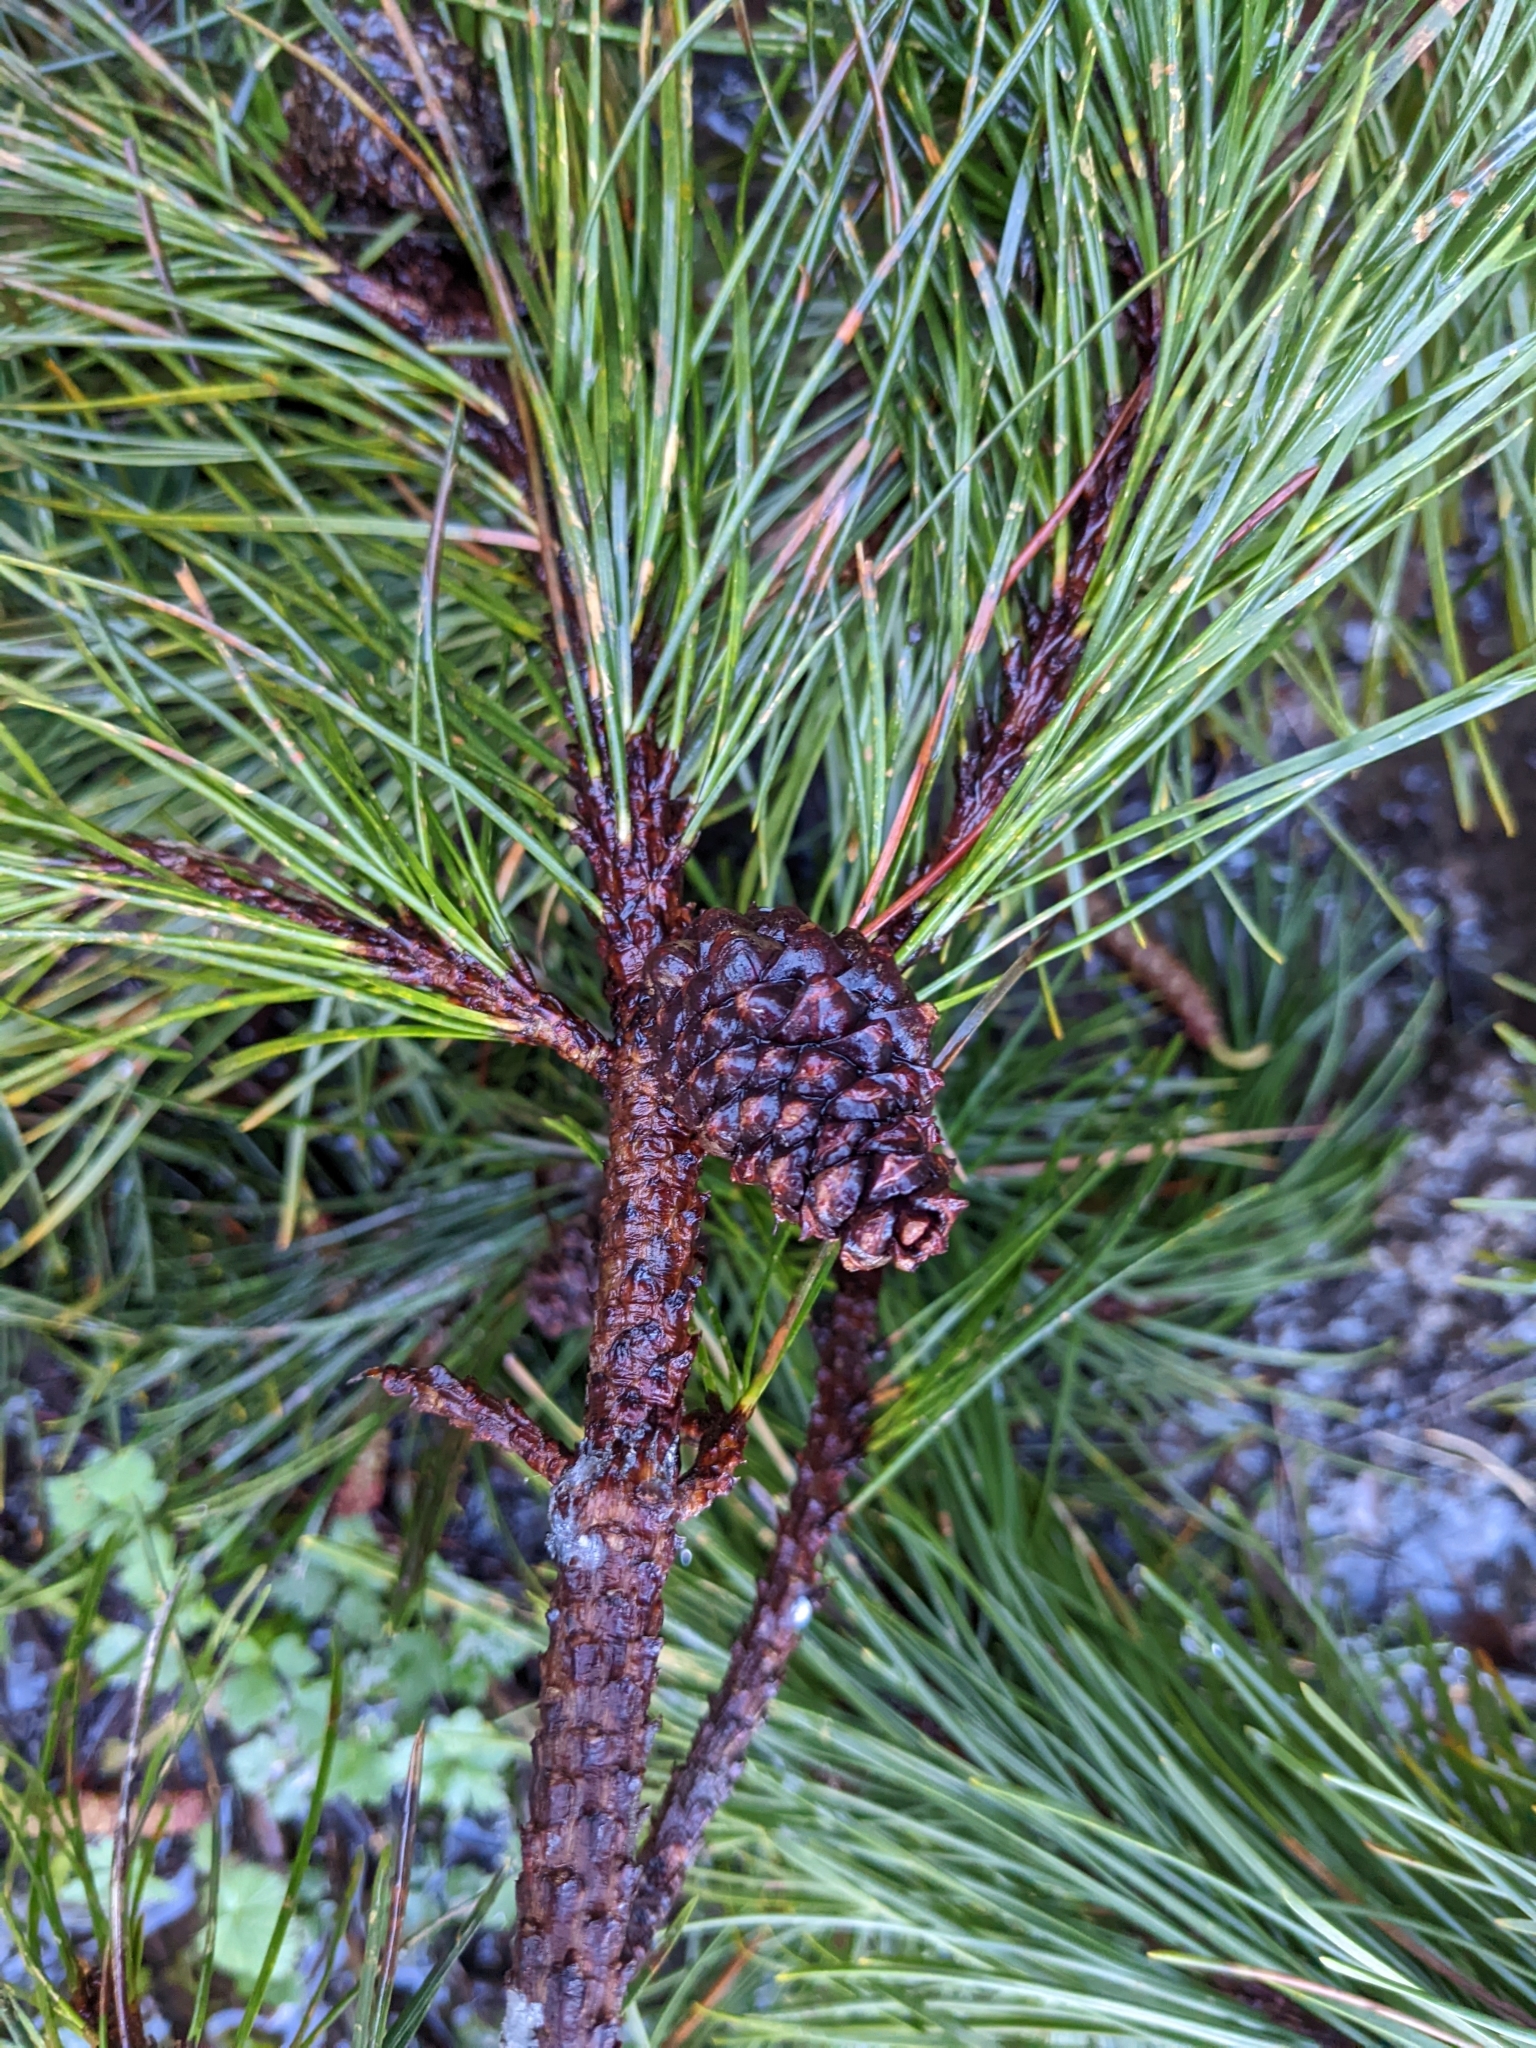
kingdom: Plantae
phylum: Tracheophyta
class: Pinopsida
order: Pinales
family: Pinaceae
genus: Pinus
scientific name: Pinus contorta
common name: Lodgepole pine
